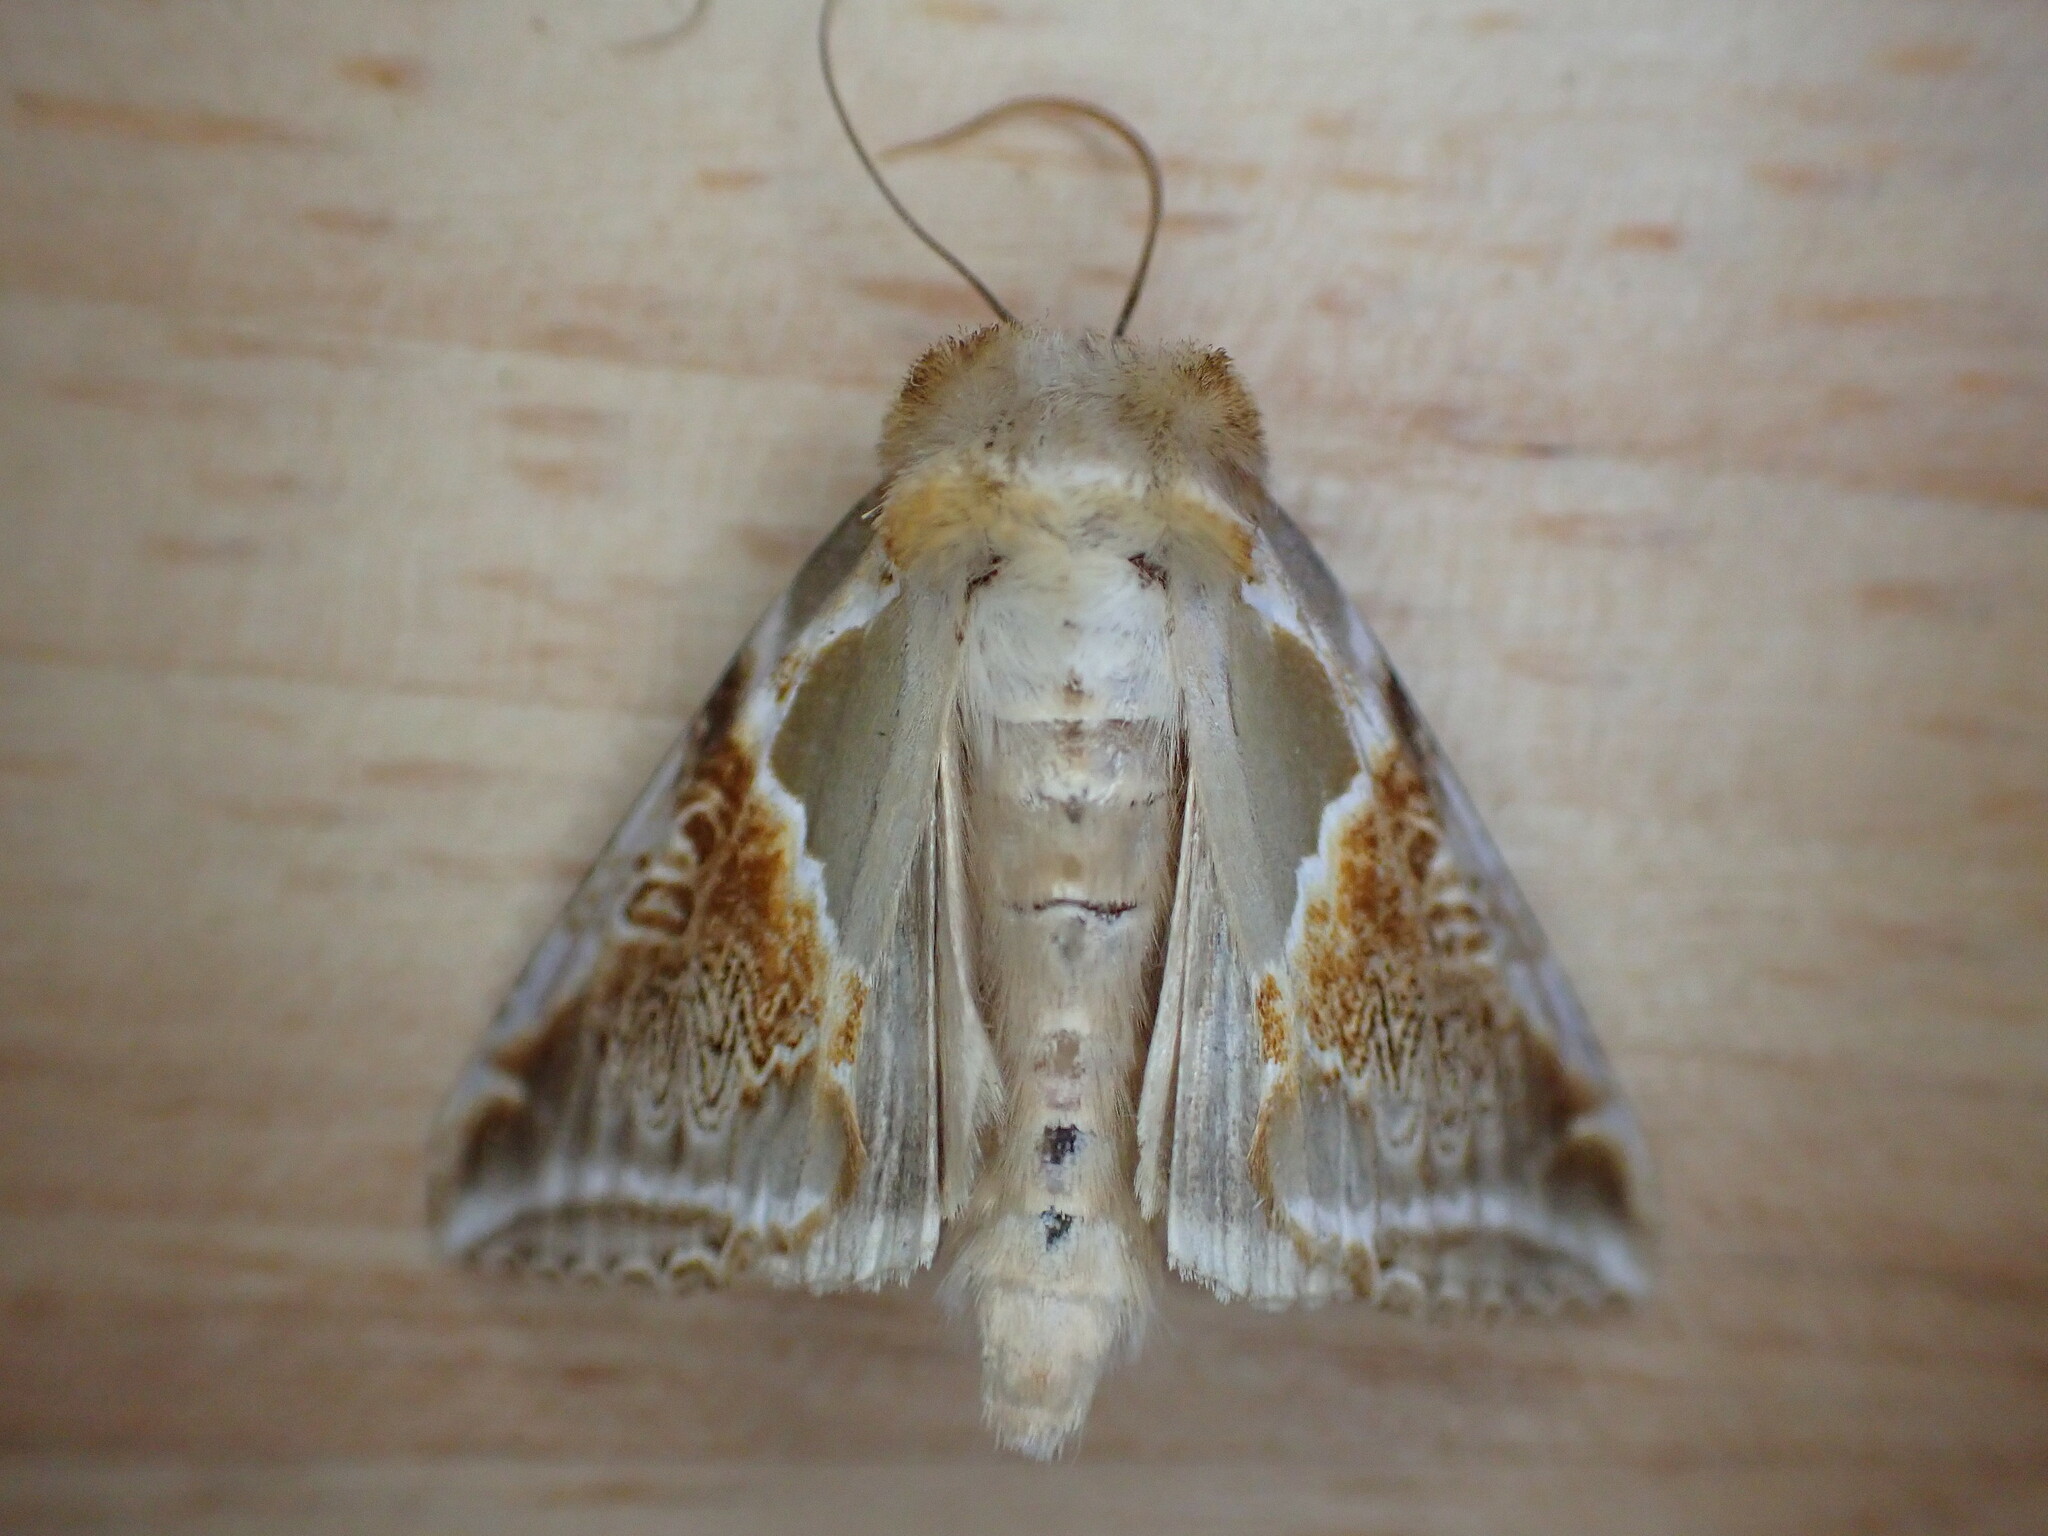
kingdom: Animalia
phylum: Arthropoda
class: Insecta
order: Lepidoptera
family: Drepanidae
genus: Habrosyne
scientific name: Habrosyne pyritoides
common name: Buff arches
